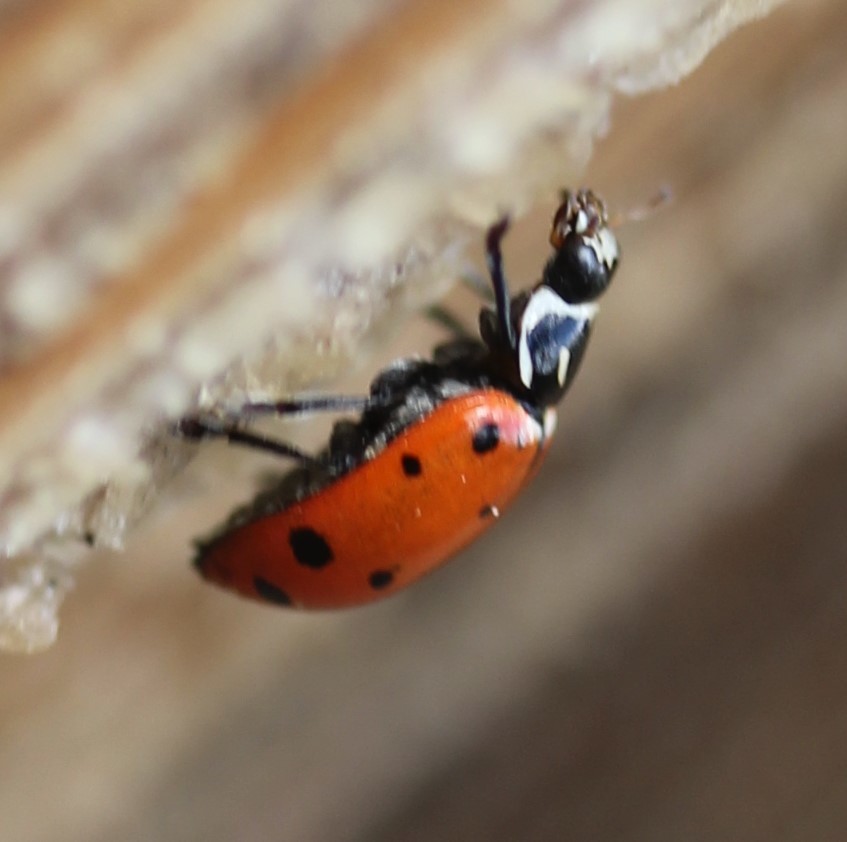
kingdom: Animalia
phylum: Arthropoda
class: Insecta
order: Coleoptera
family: Coccinellidae
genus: Hippodamia
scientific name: Hippodamia convergens
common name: Convergent lady beetle
